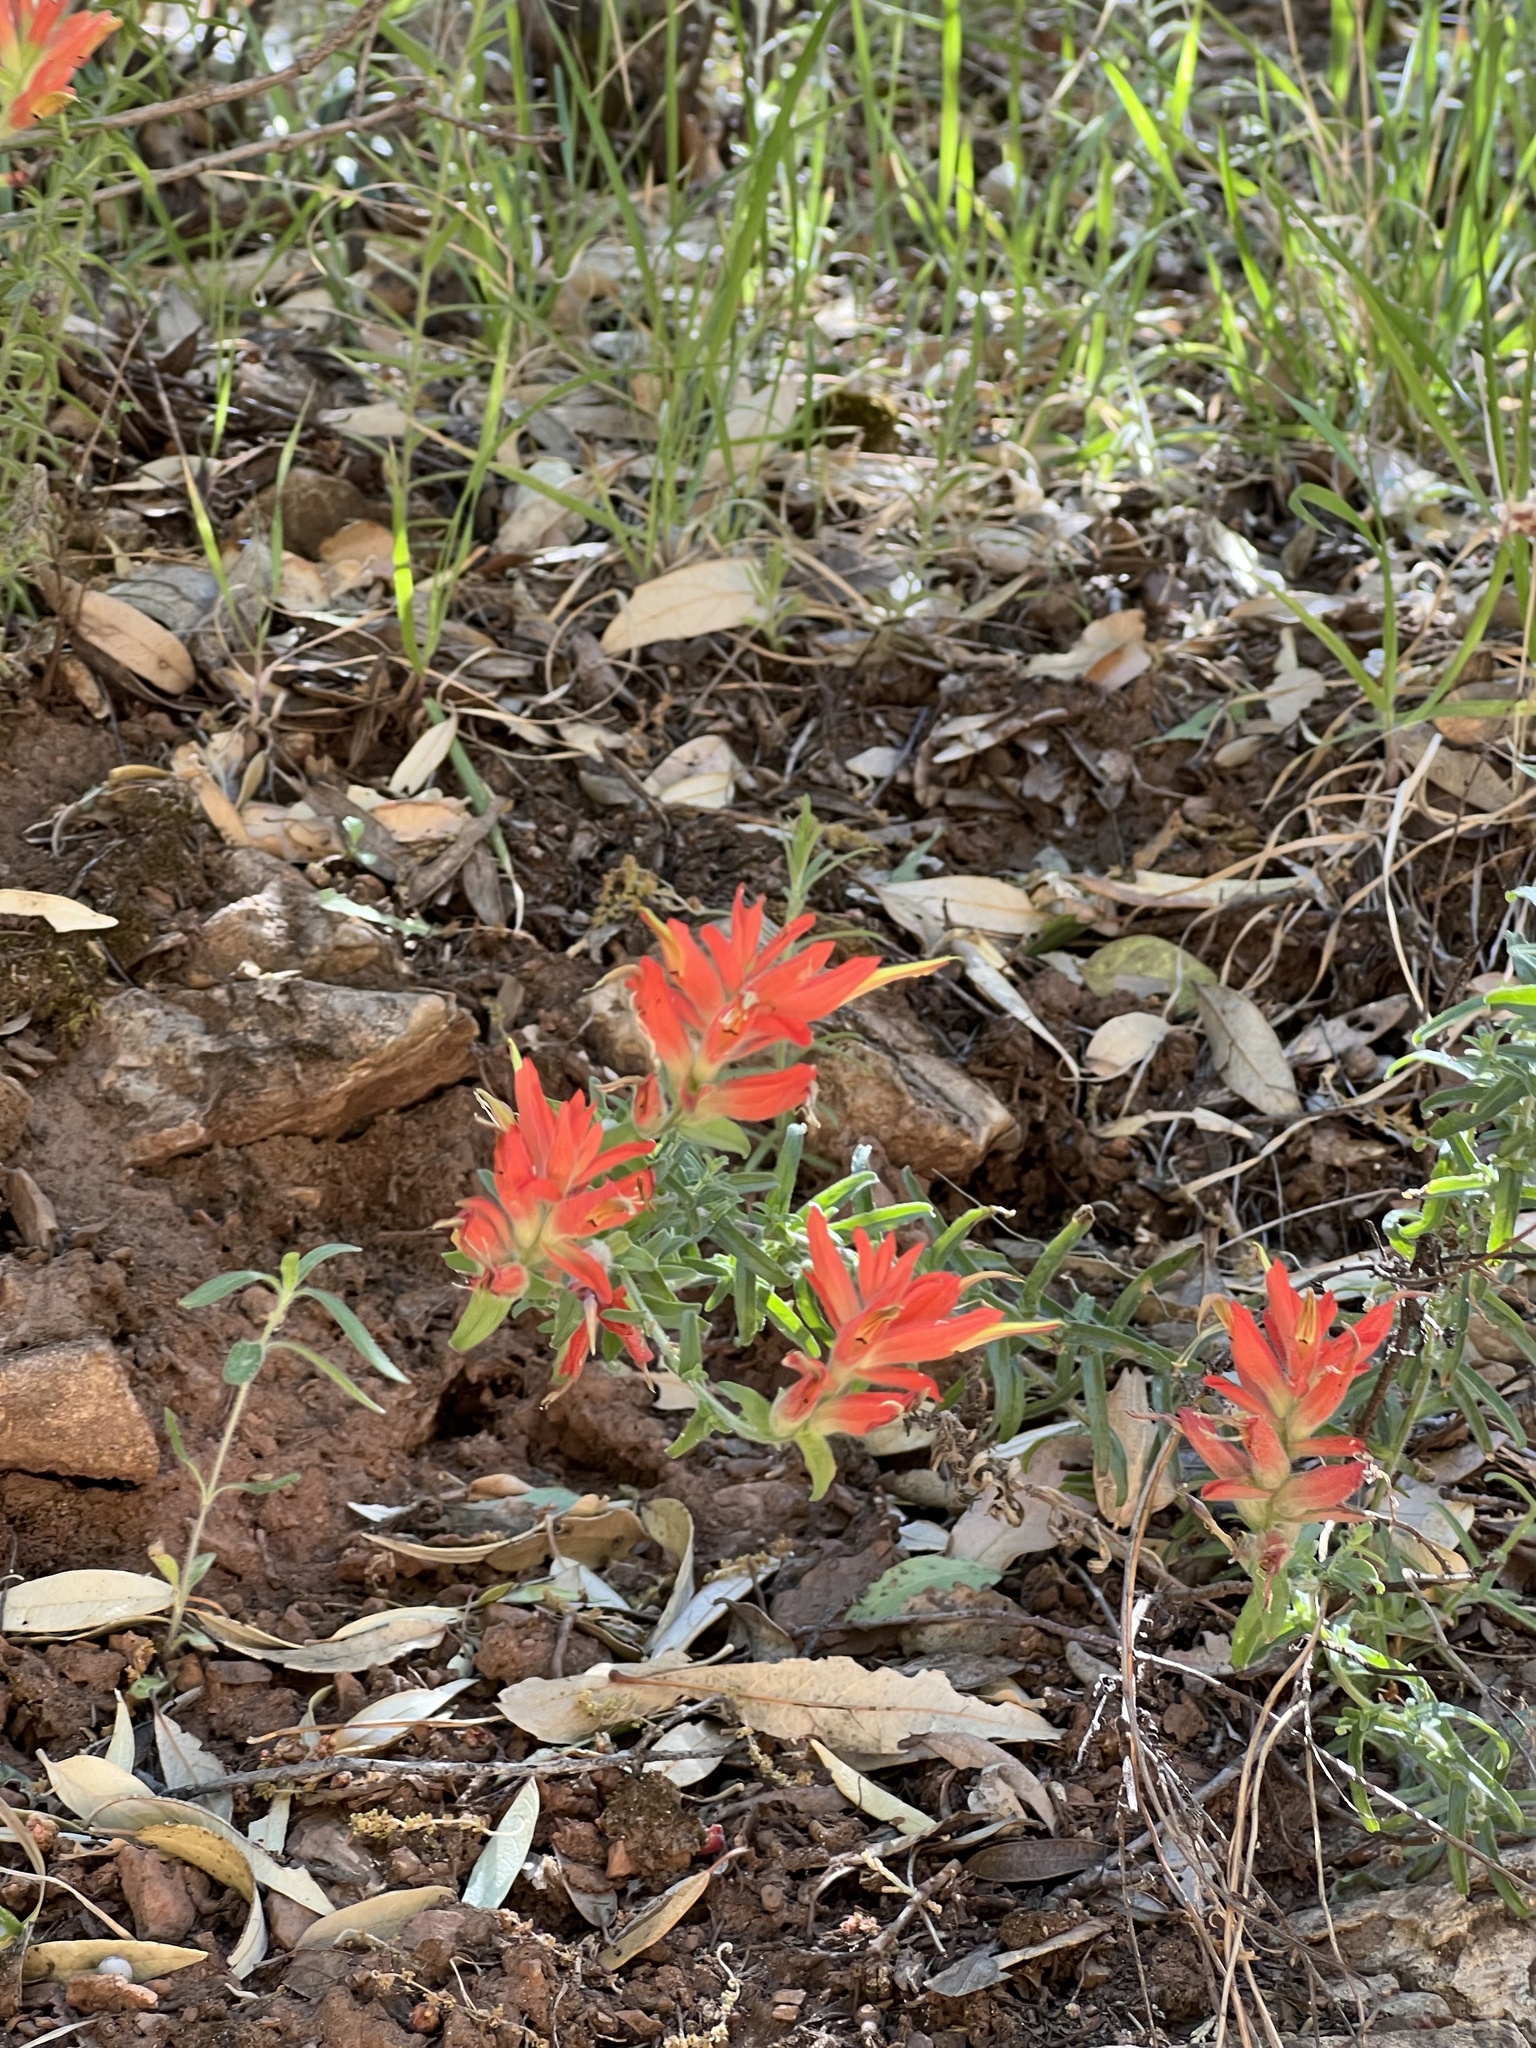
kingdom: Plantae
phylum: Tracheophyta
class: Magnoliopsida
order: Lamiales
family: Orobanchaceae
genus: Castilleja
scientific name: Castilleja tenuiflora
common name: Santa catalina indian paintbrush
